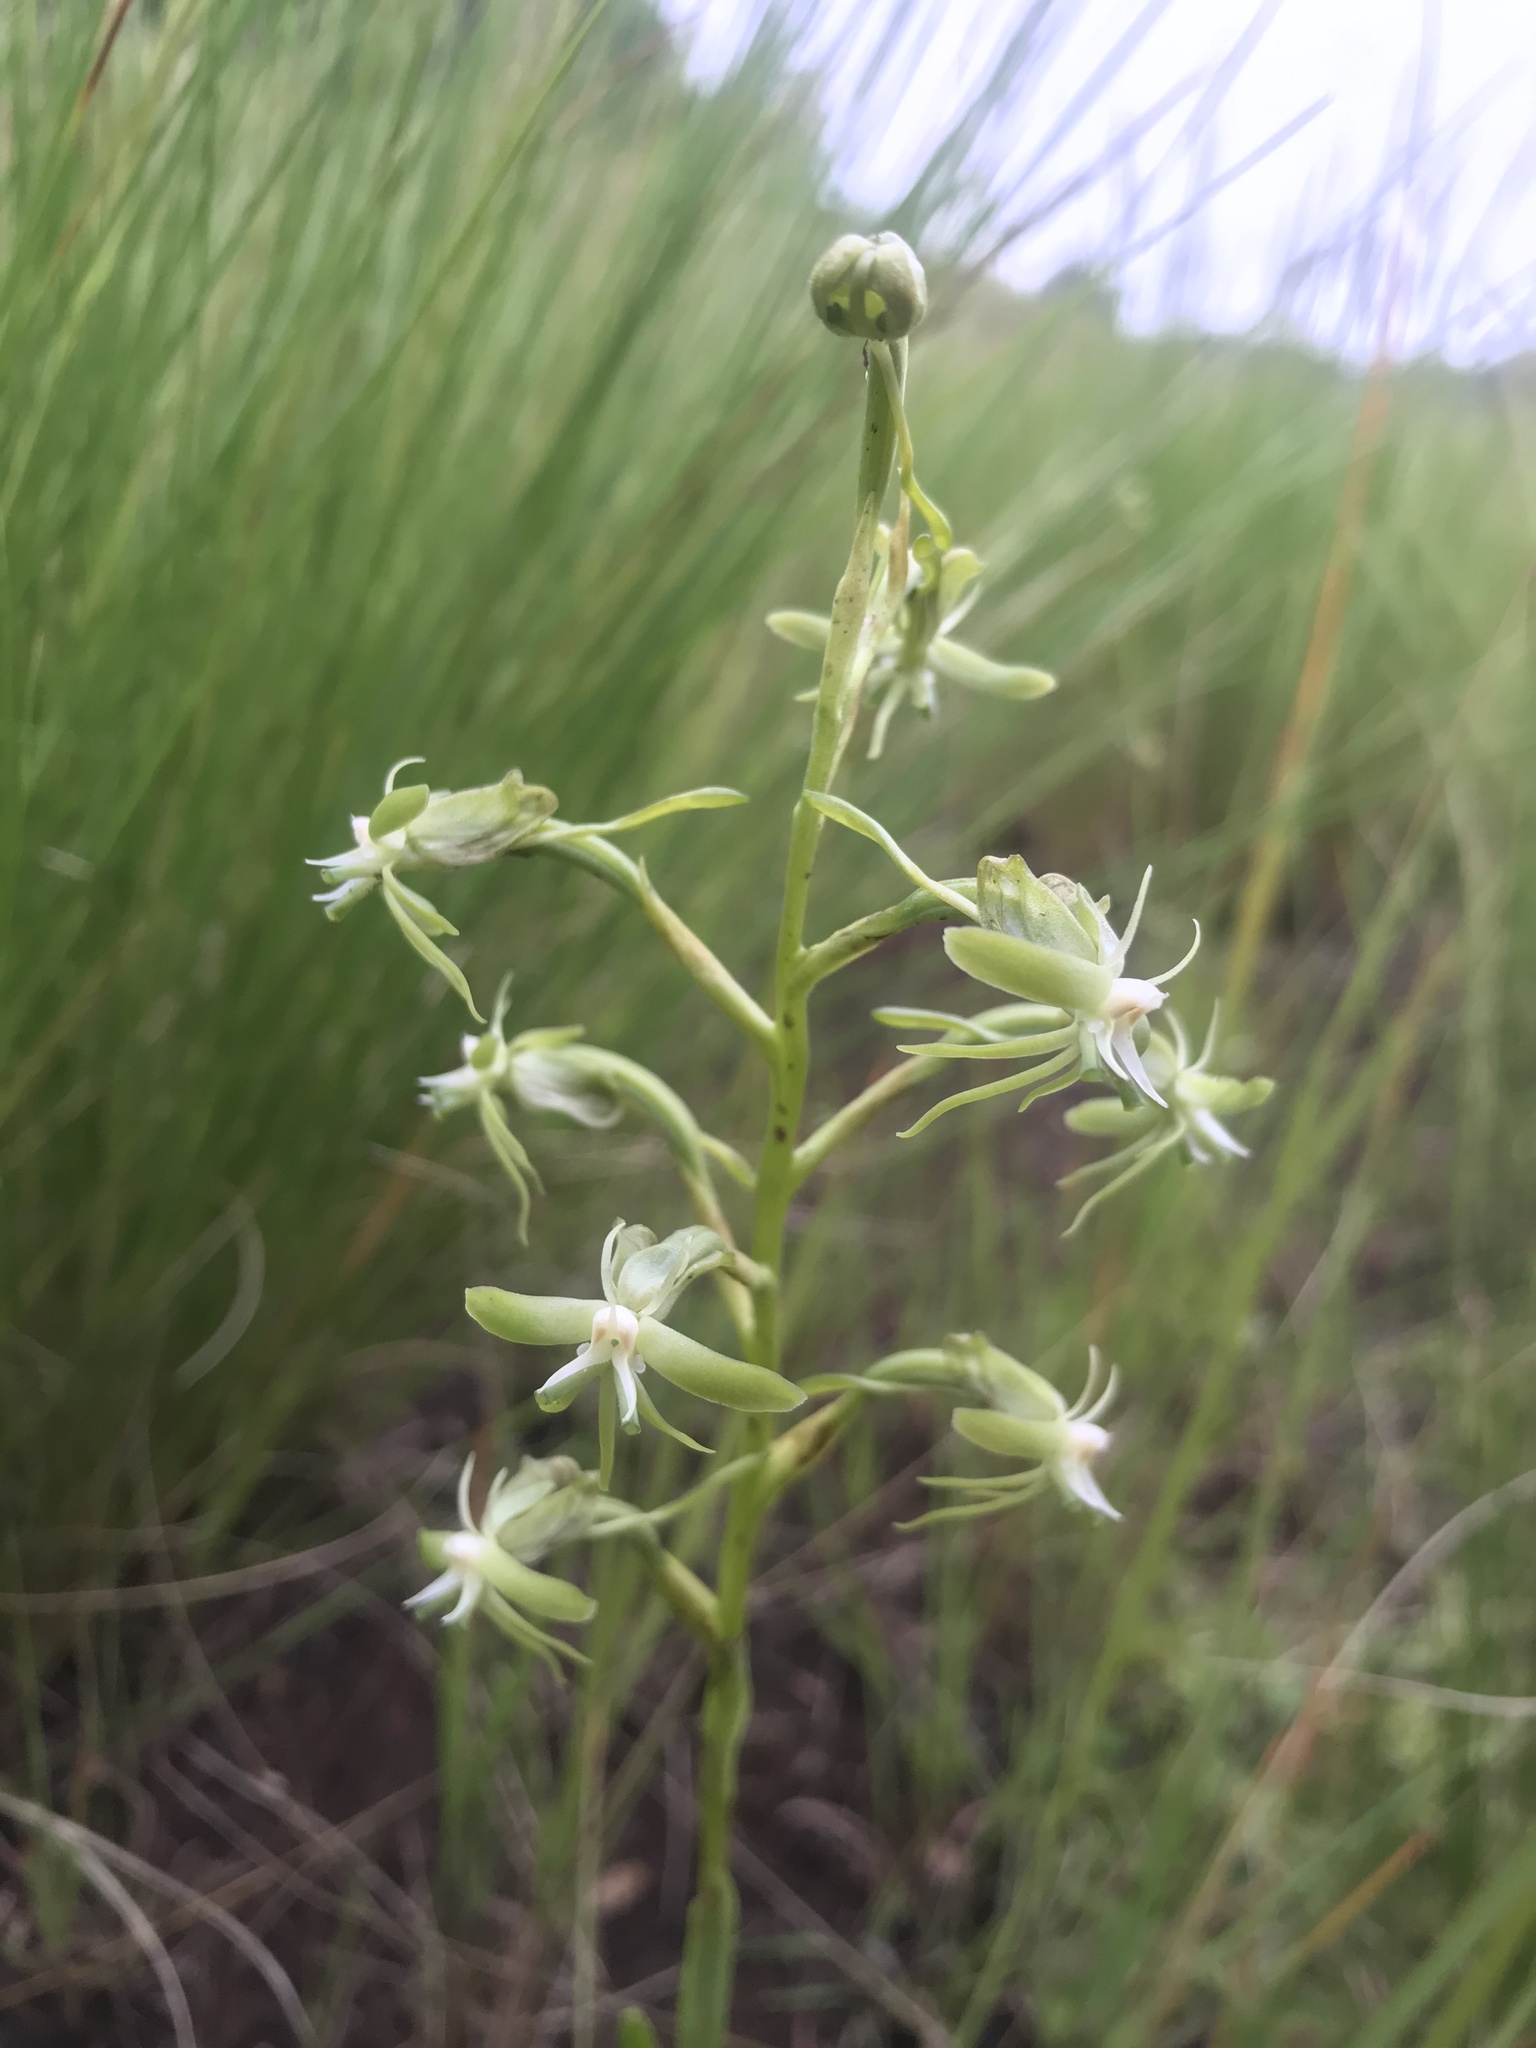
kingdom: Plantae
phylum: Tracheophyta
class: Liliopsida
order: Asparagales
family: Orchidaceae
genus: Habenaria
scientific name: Habenaria humilior
